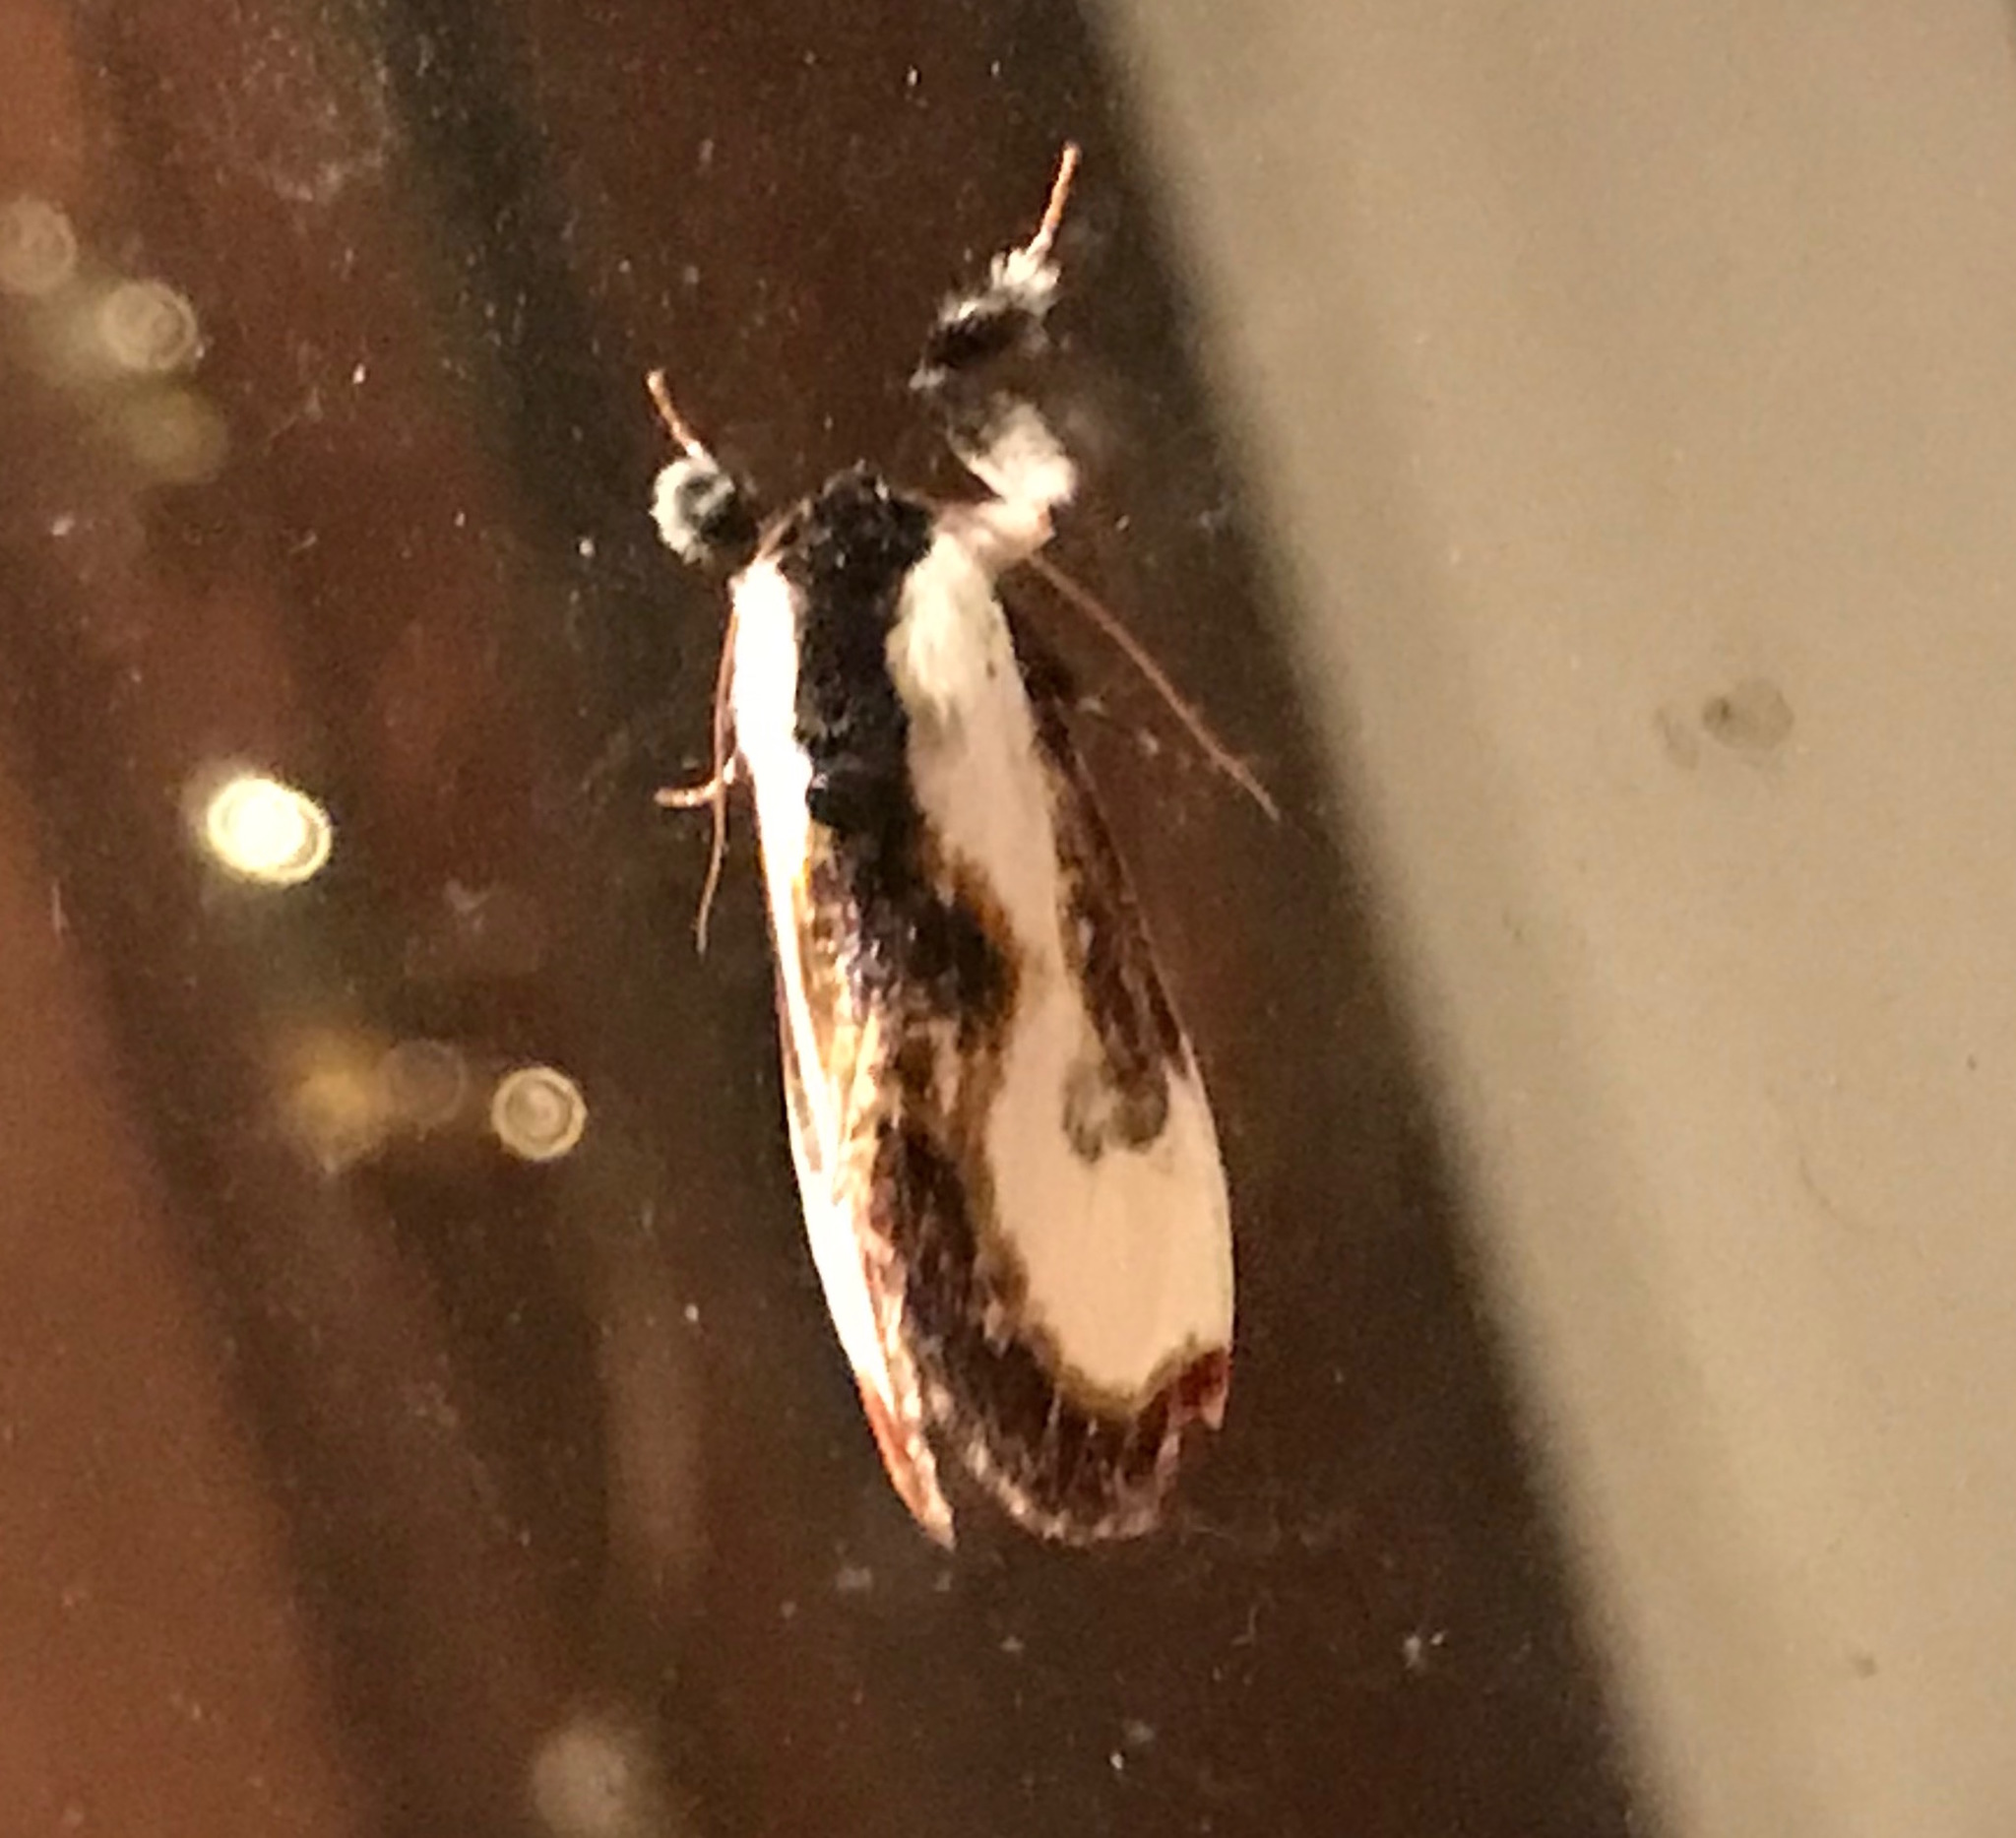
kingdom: Animalia
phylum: Arthropoda
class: Insecta
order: Lepidoptera
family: Noctuidae
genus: Eudryas
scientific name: Eudryas grata
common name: Beautiful wood-nymph
